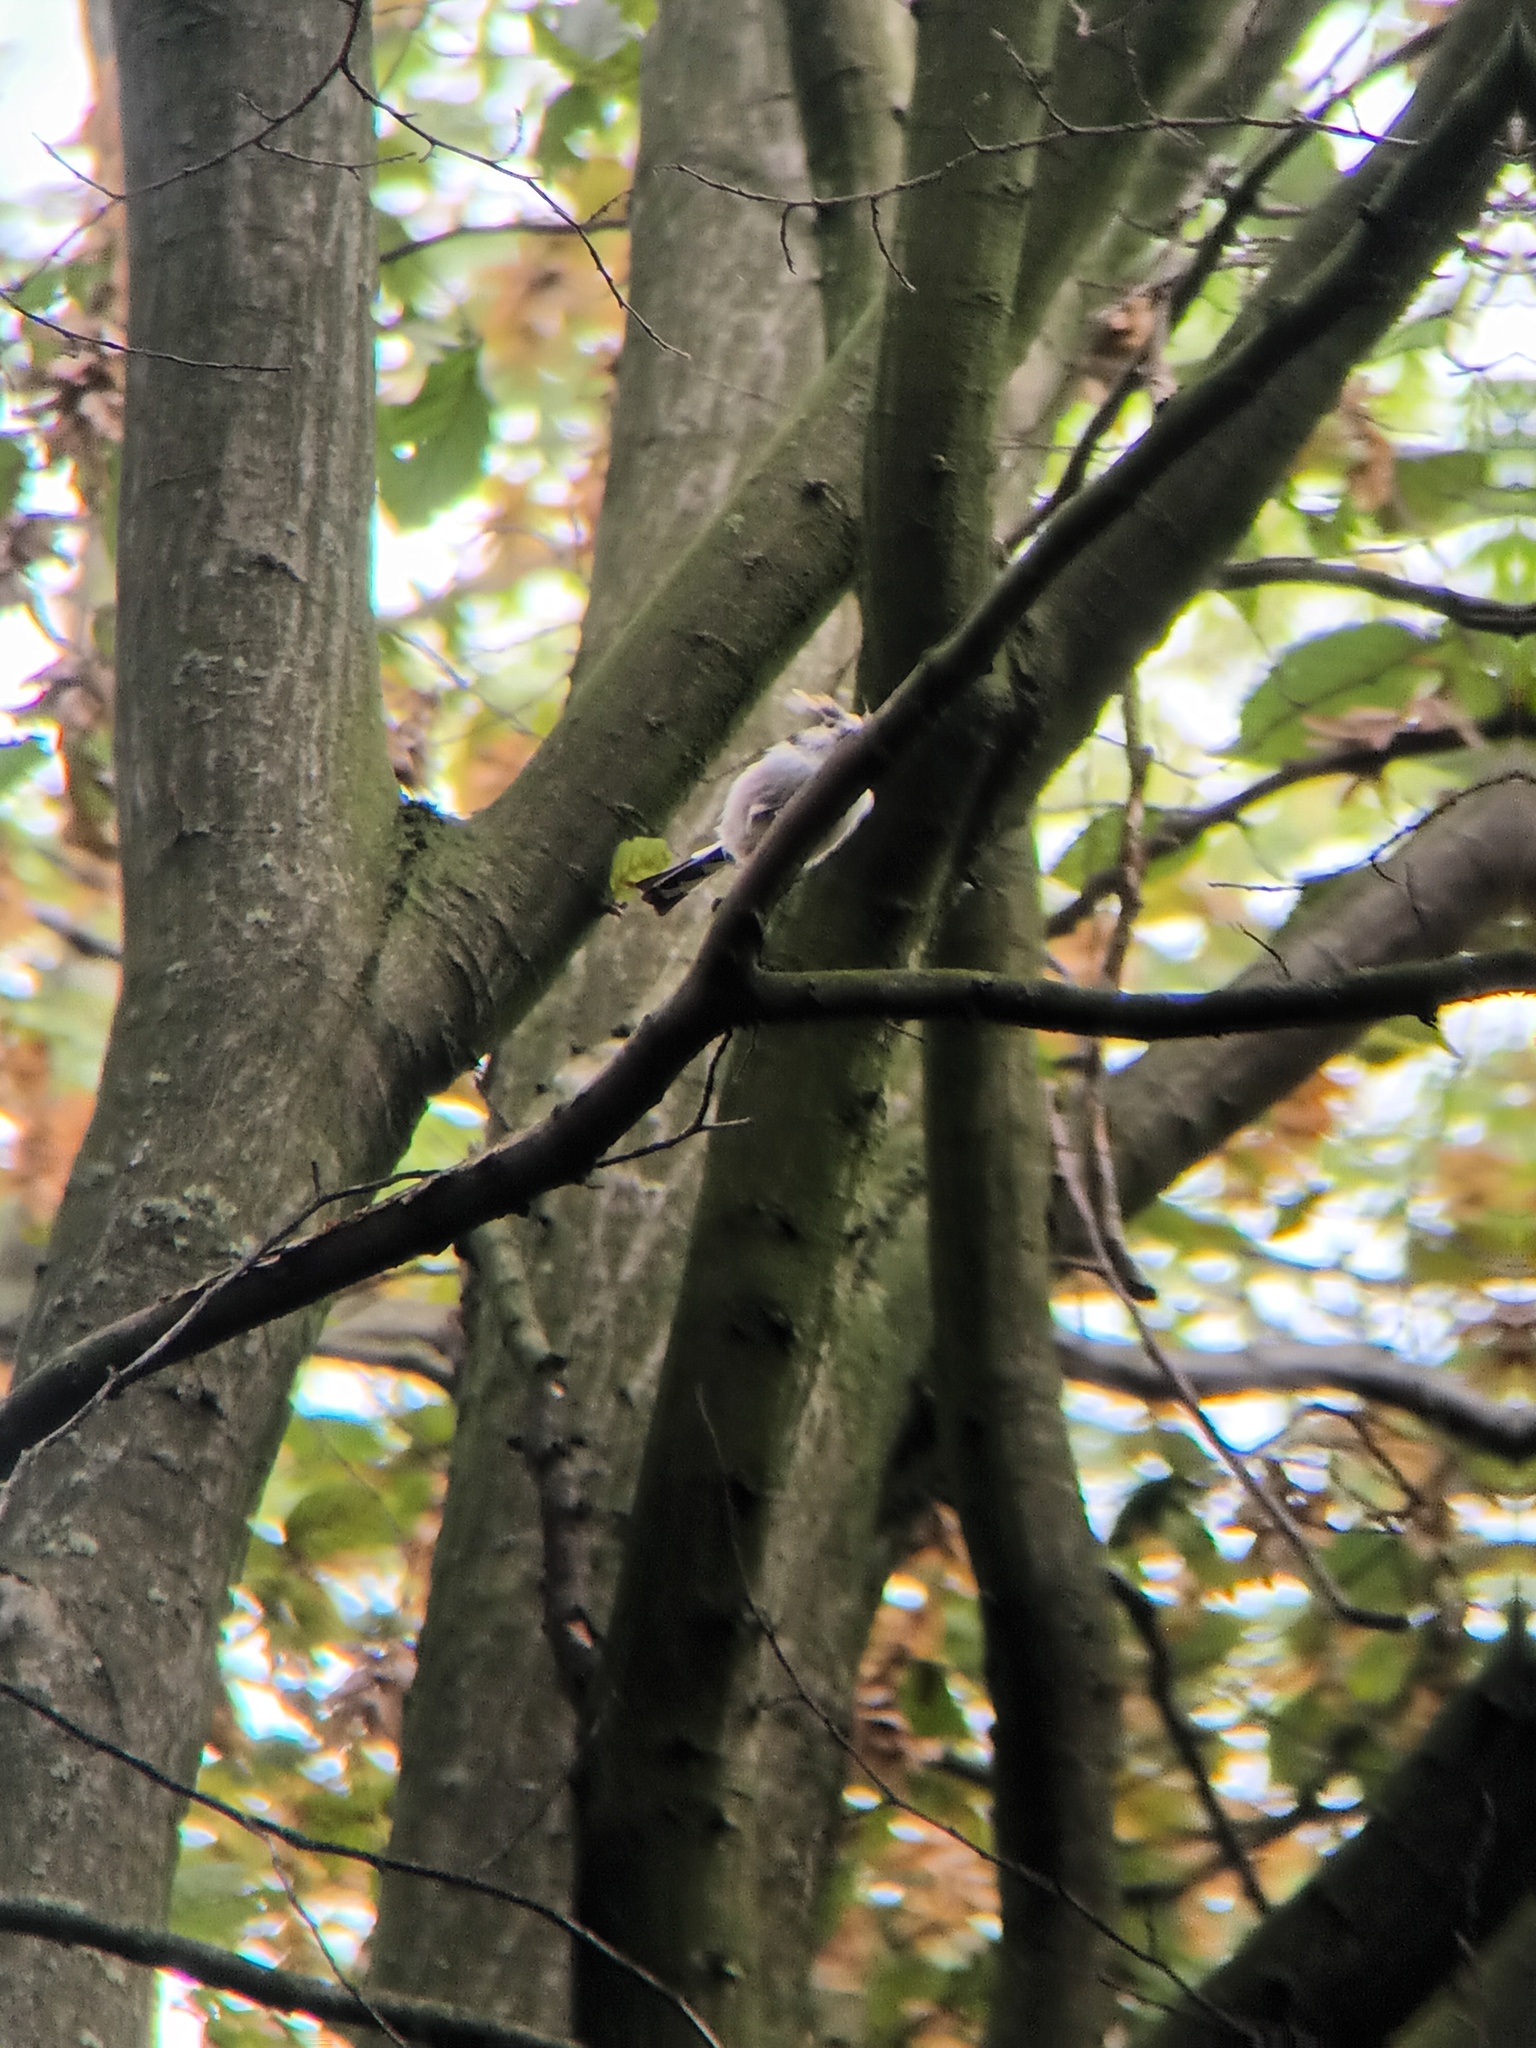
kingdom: Animalia
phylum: Chordata
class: Aves
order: Passeriformes
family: Aegithalidae
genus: Aegithalos
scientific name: Aegithalos caudatus
